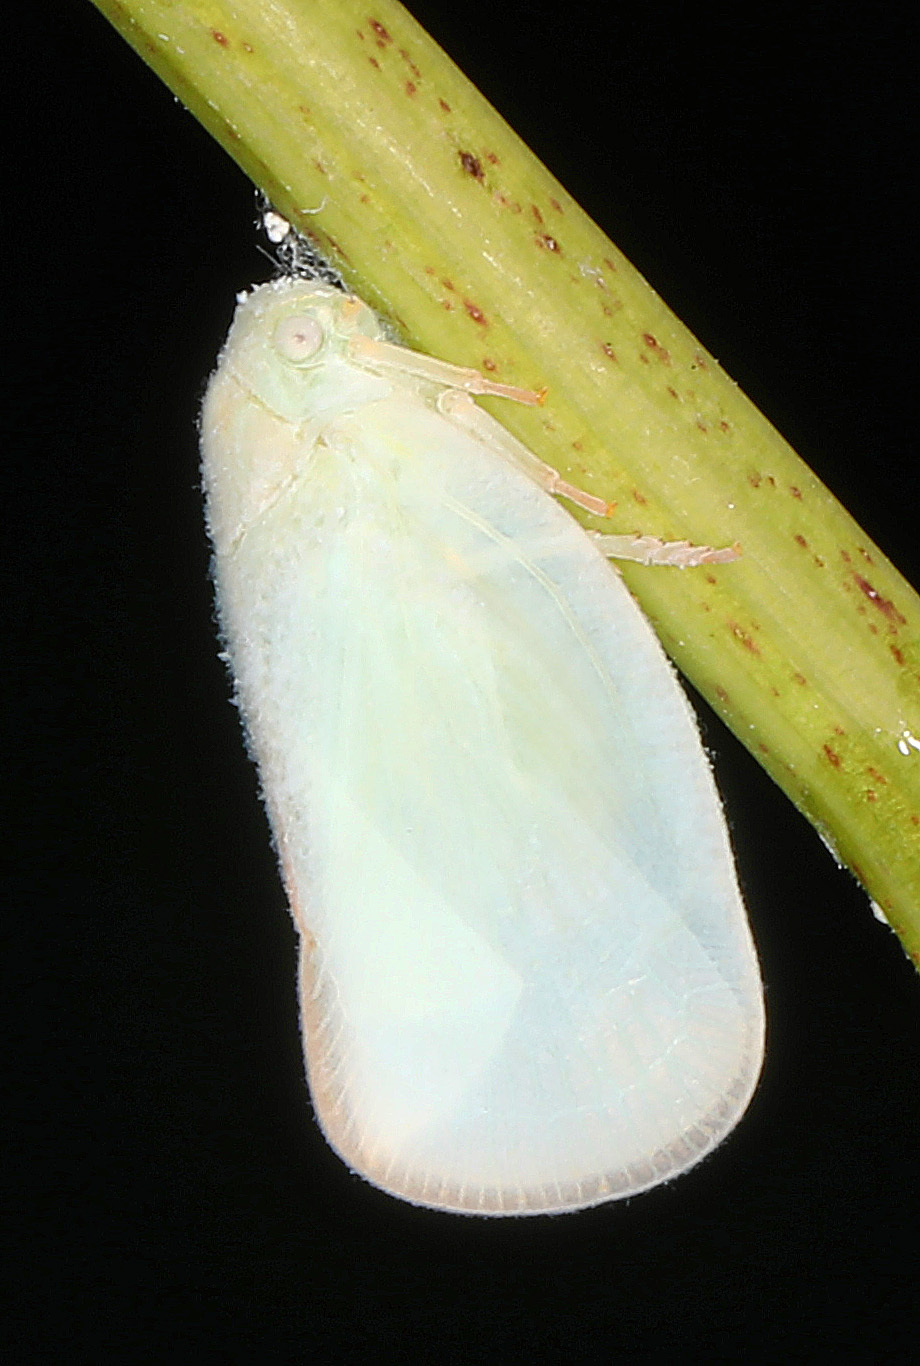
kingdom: Animalia
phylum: Arthropoda
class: Insecta
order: Hemiptera
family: Flatidae
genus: Ormenoides
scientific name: Ormenoides venusta
